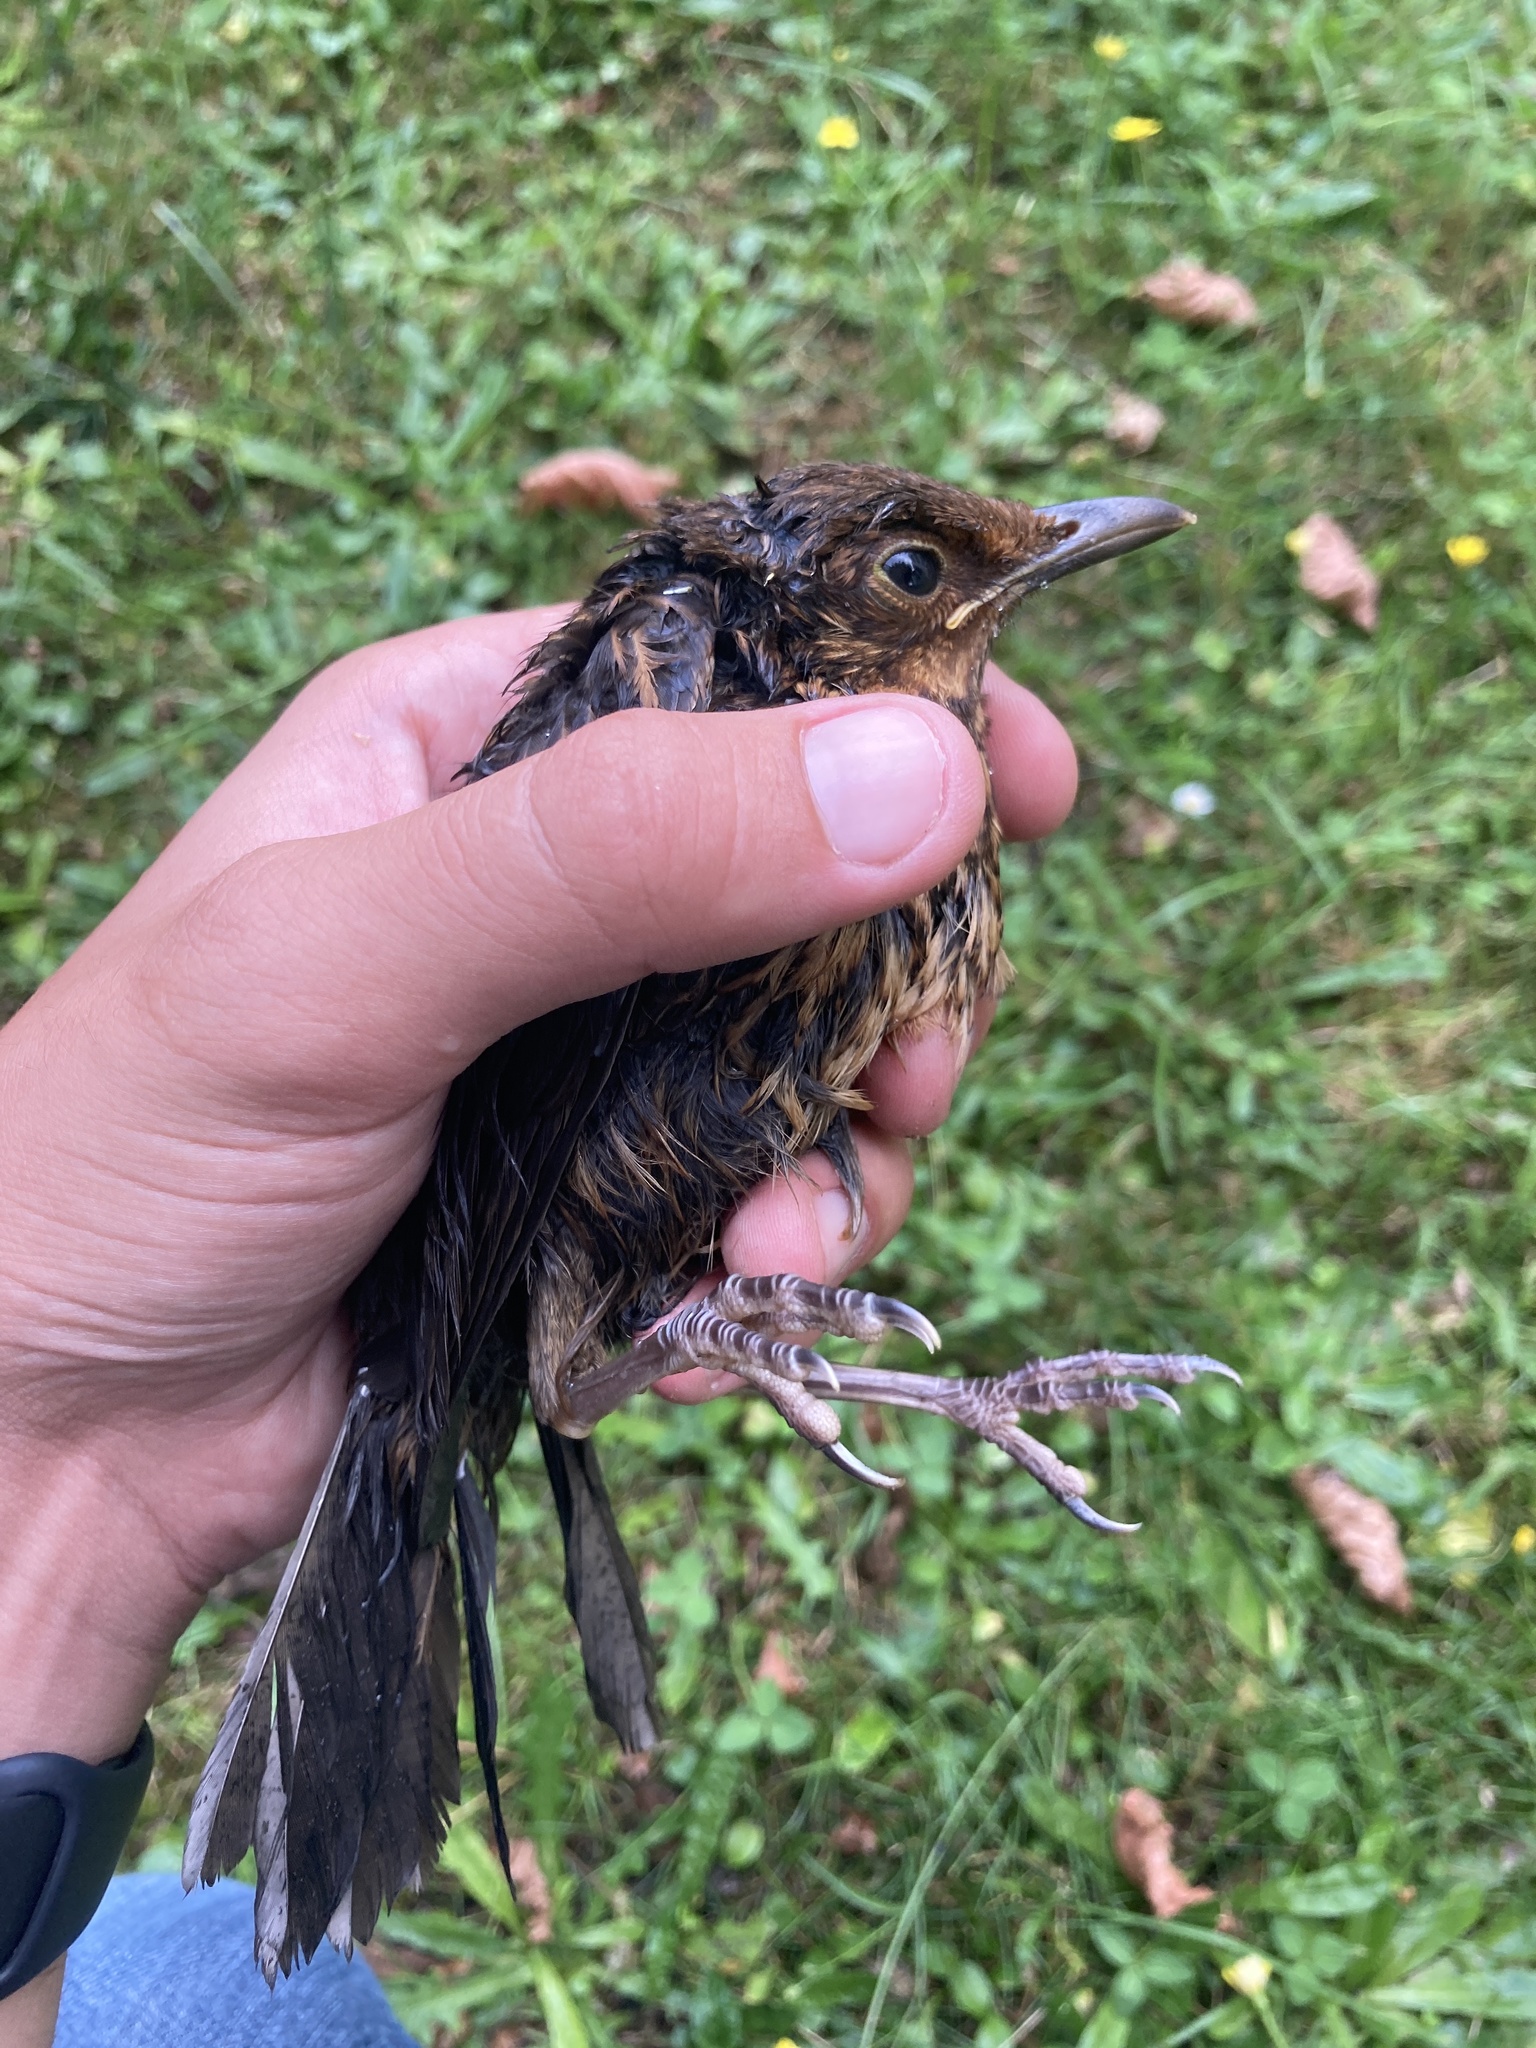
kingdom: Animalia
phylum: Chordata
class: Aves
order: Passeriformes
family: Turdidae
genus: Turdus
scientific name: Turdus merula
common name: Common blackbird
